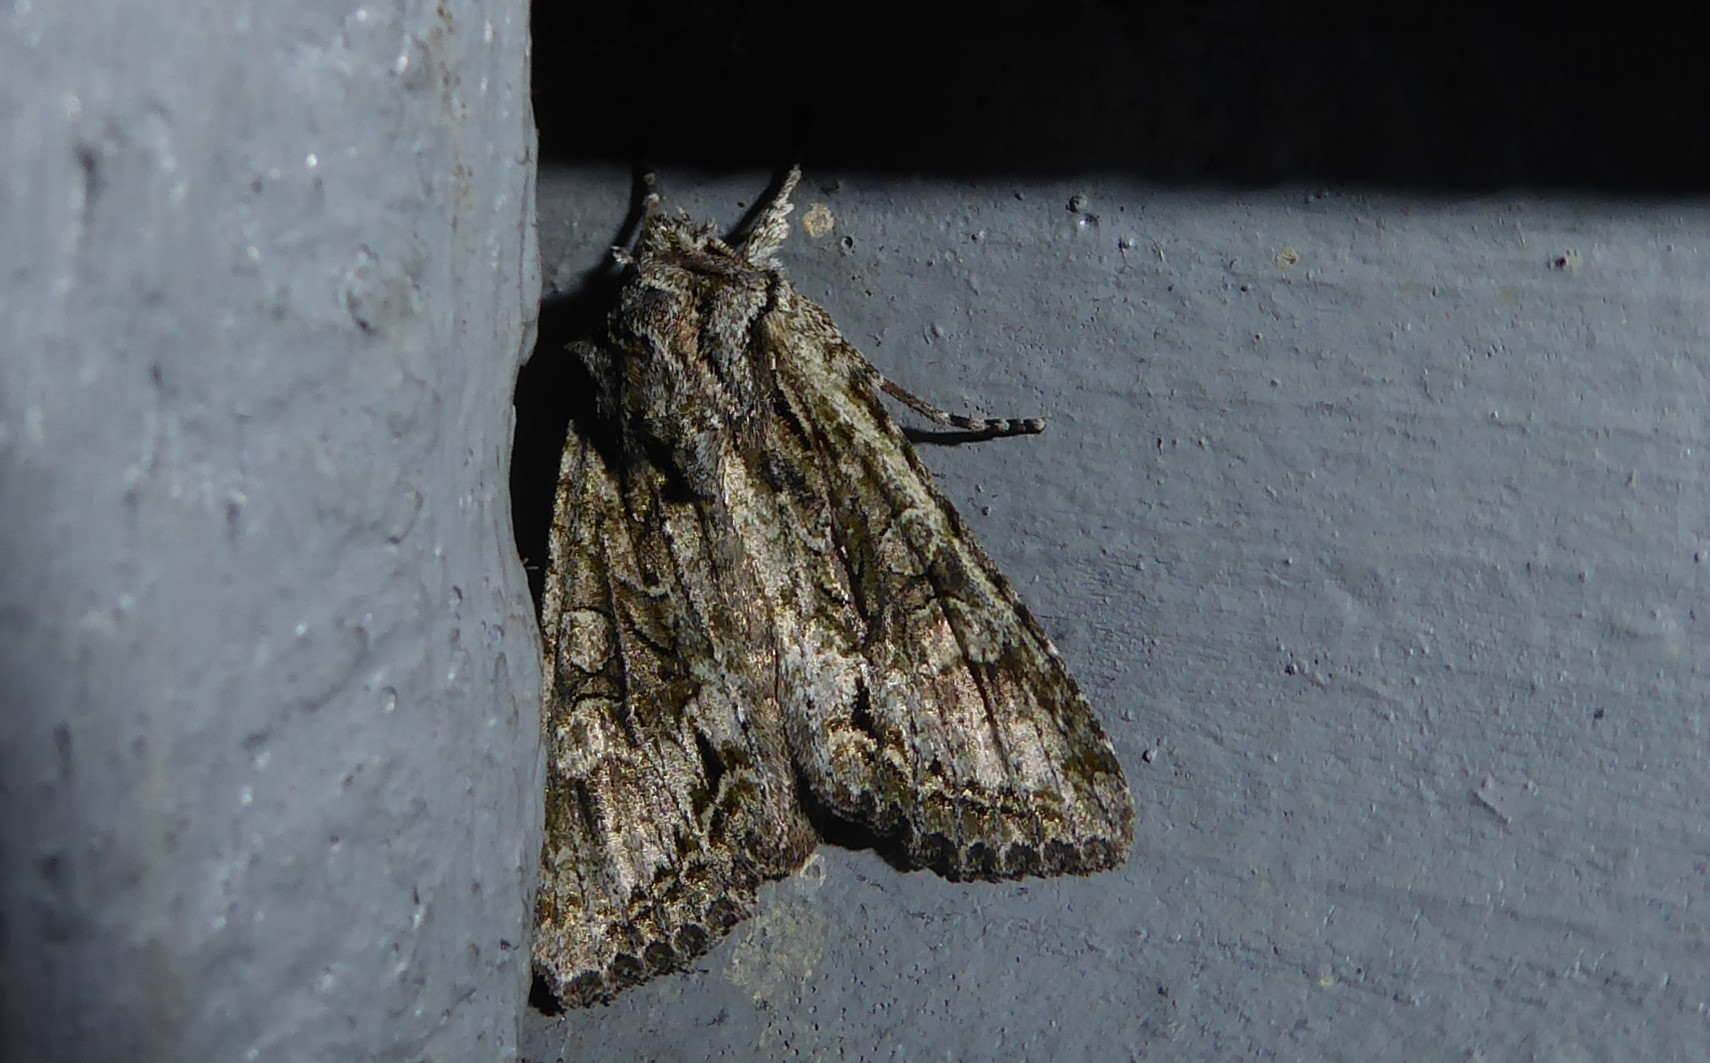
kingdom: Animalia
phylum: Arthropoda
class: Insecta
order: Lepidoptera
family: Noctuidae
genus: Ichneutica
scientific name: Ichneutica mutans
